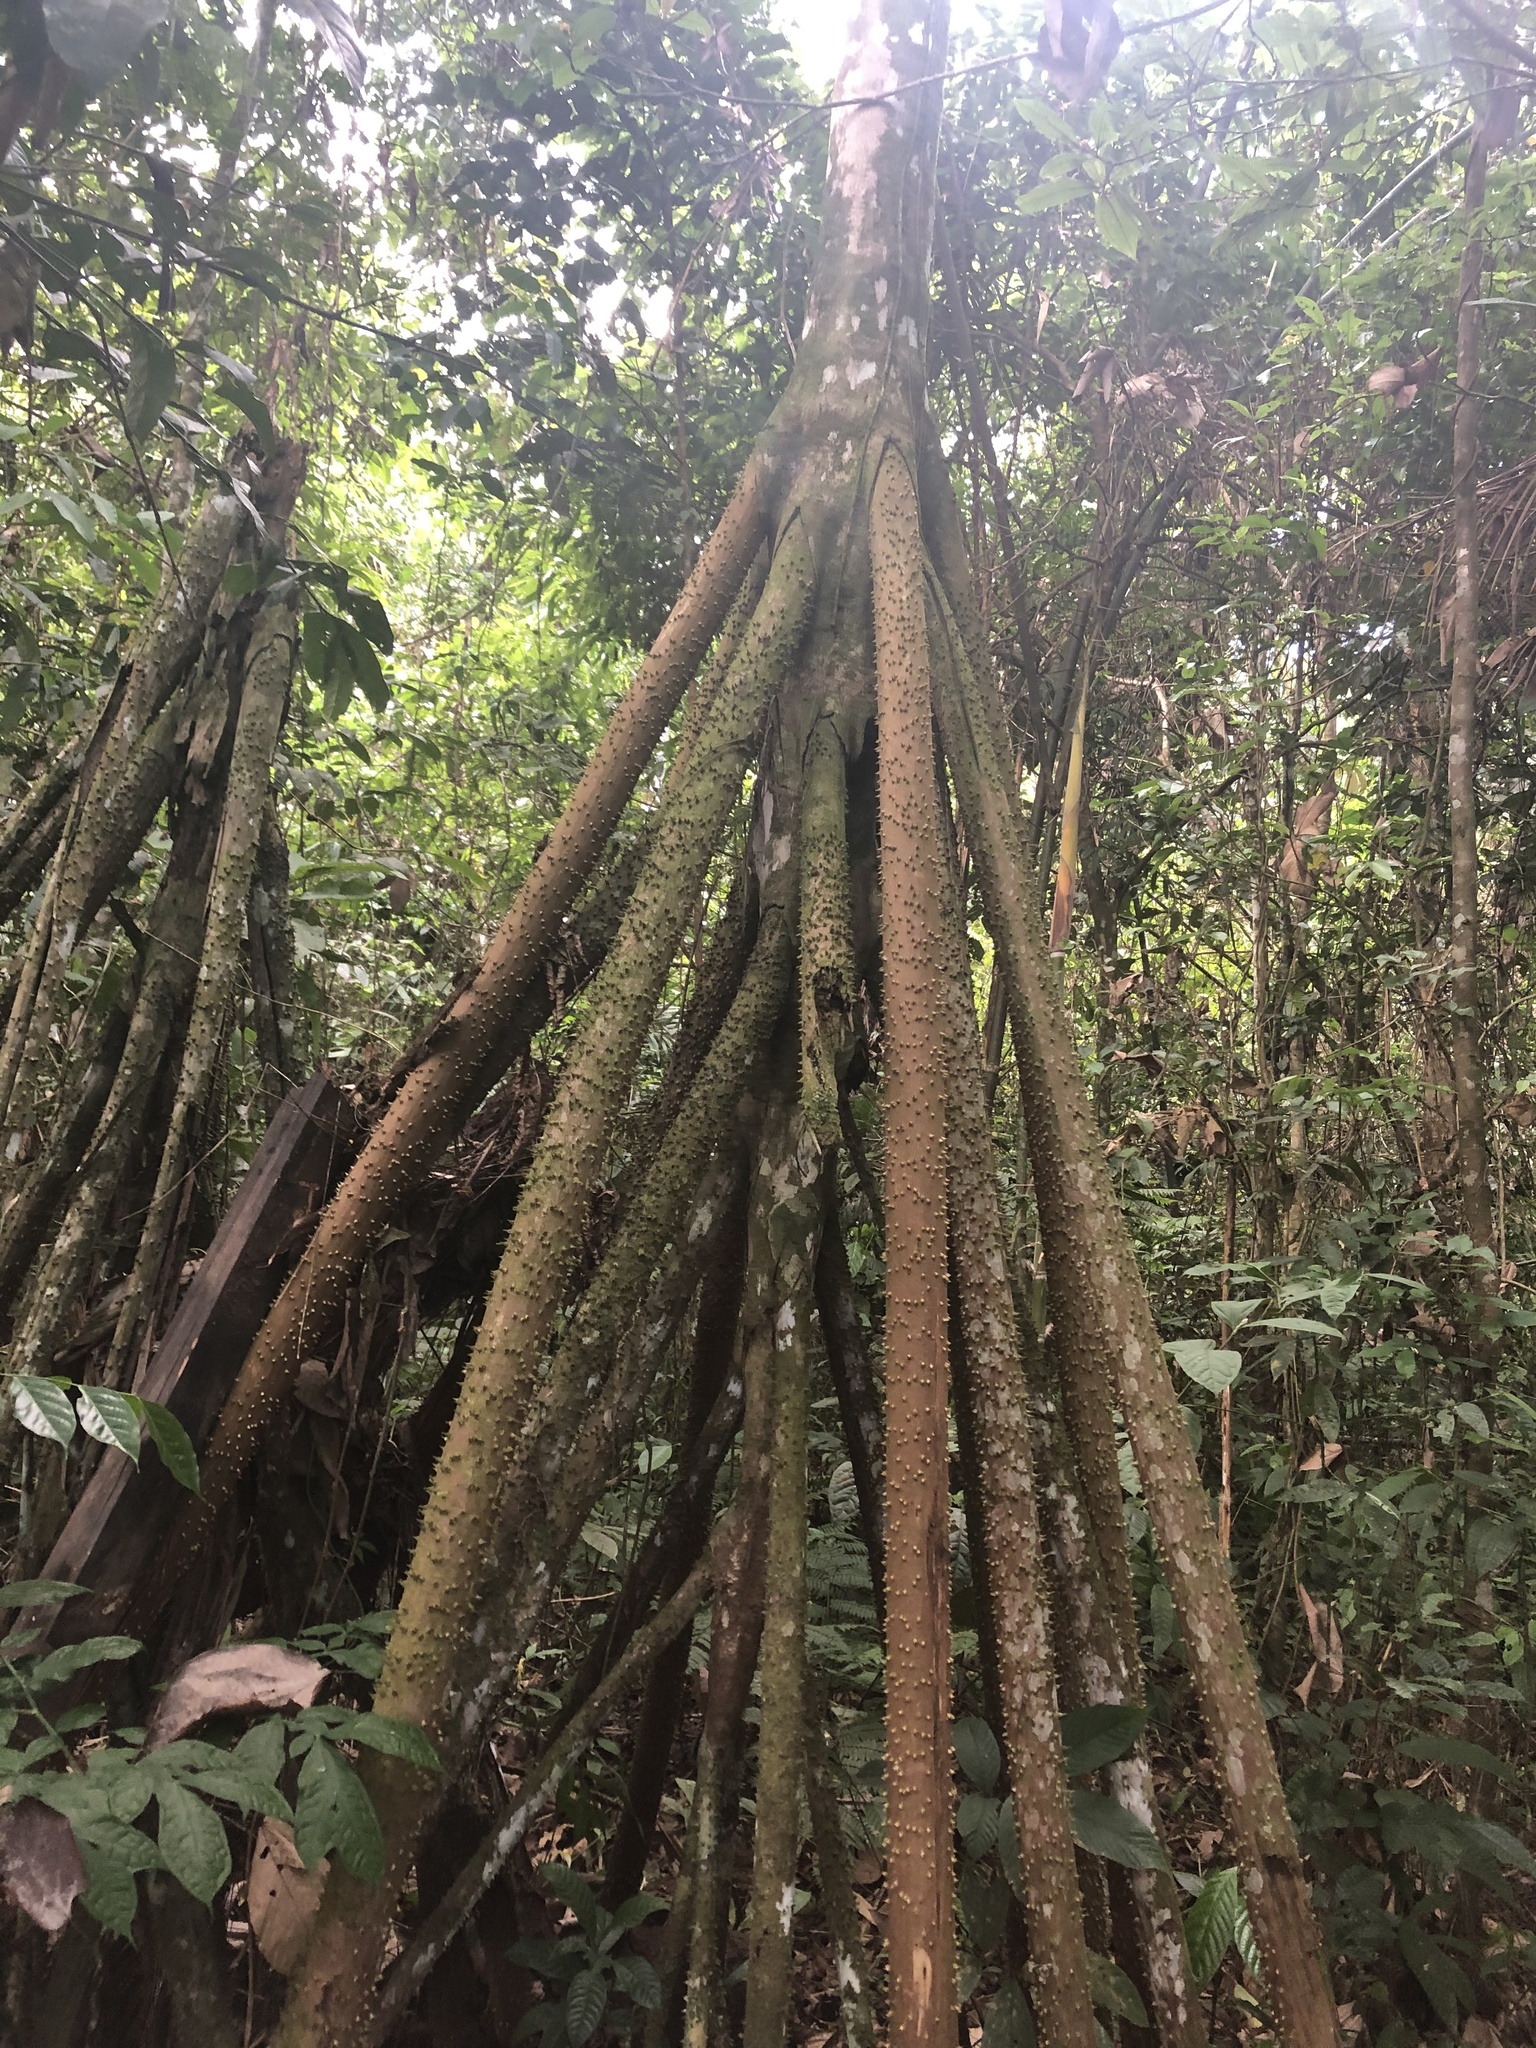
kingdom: Plantae
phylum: Tracheophyta
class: Liliopsida
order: Arecales
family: Arecaceae
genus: Socratea
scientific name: Socratea exorrhiza
